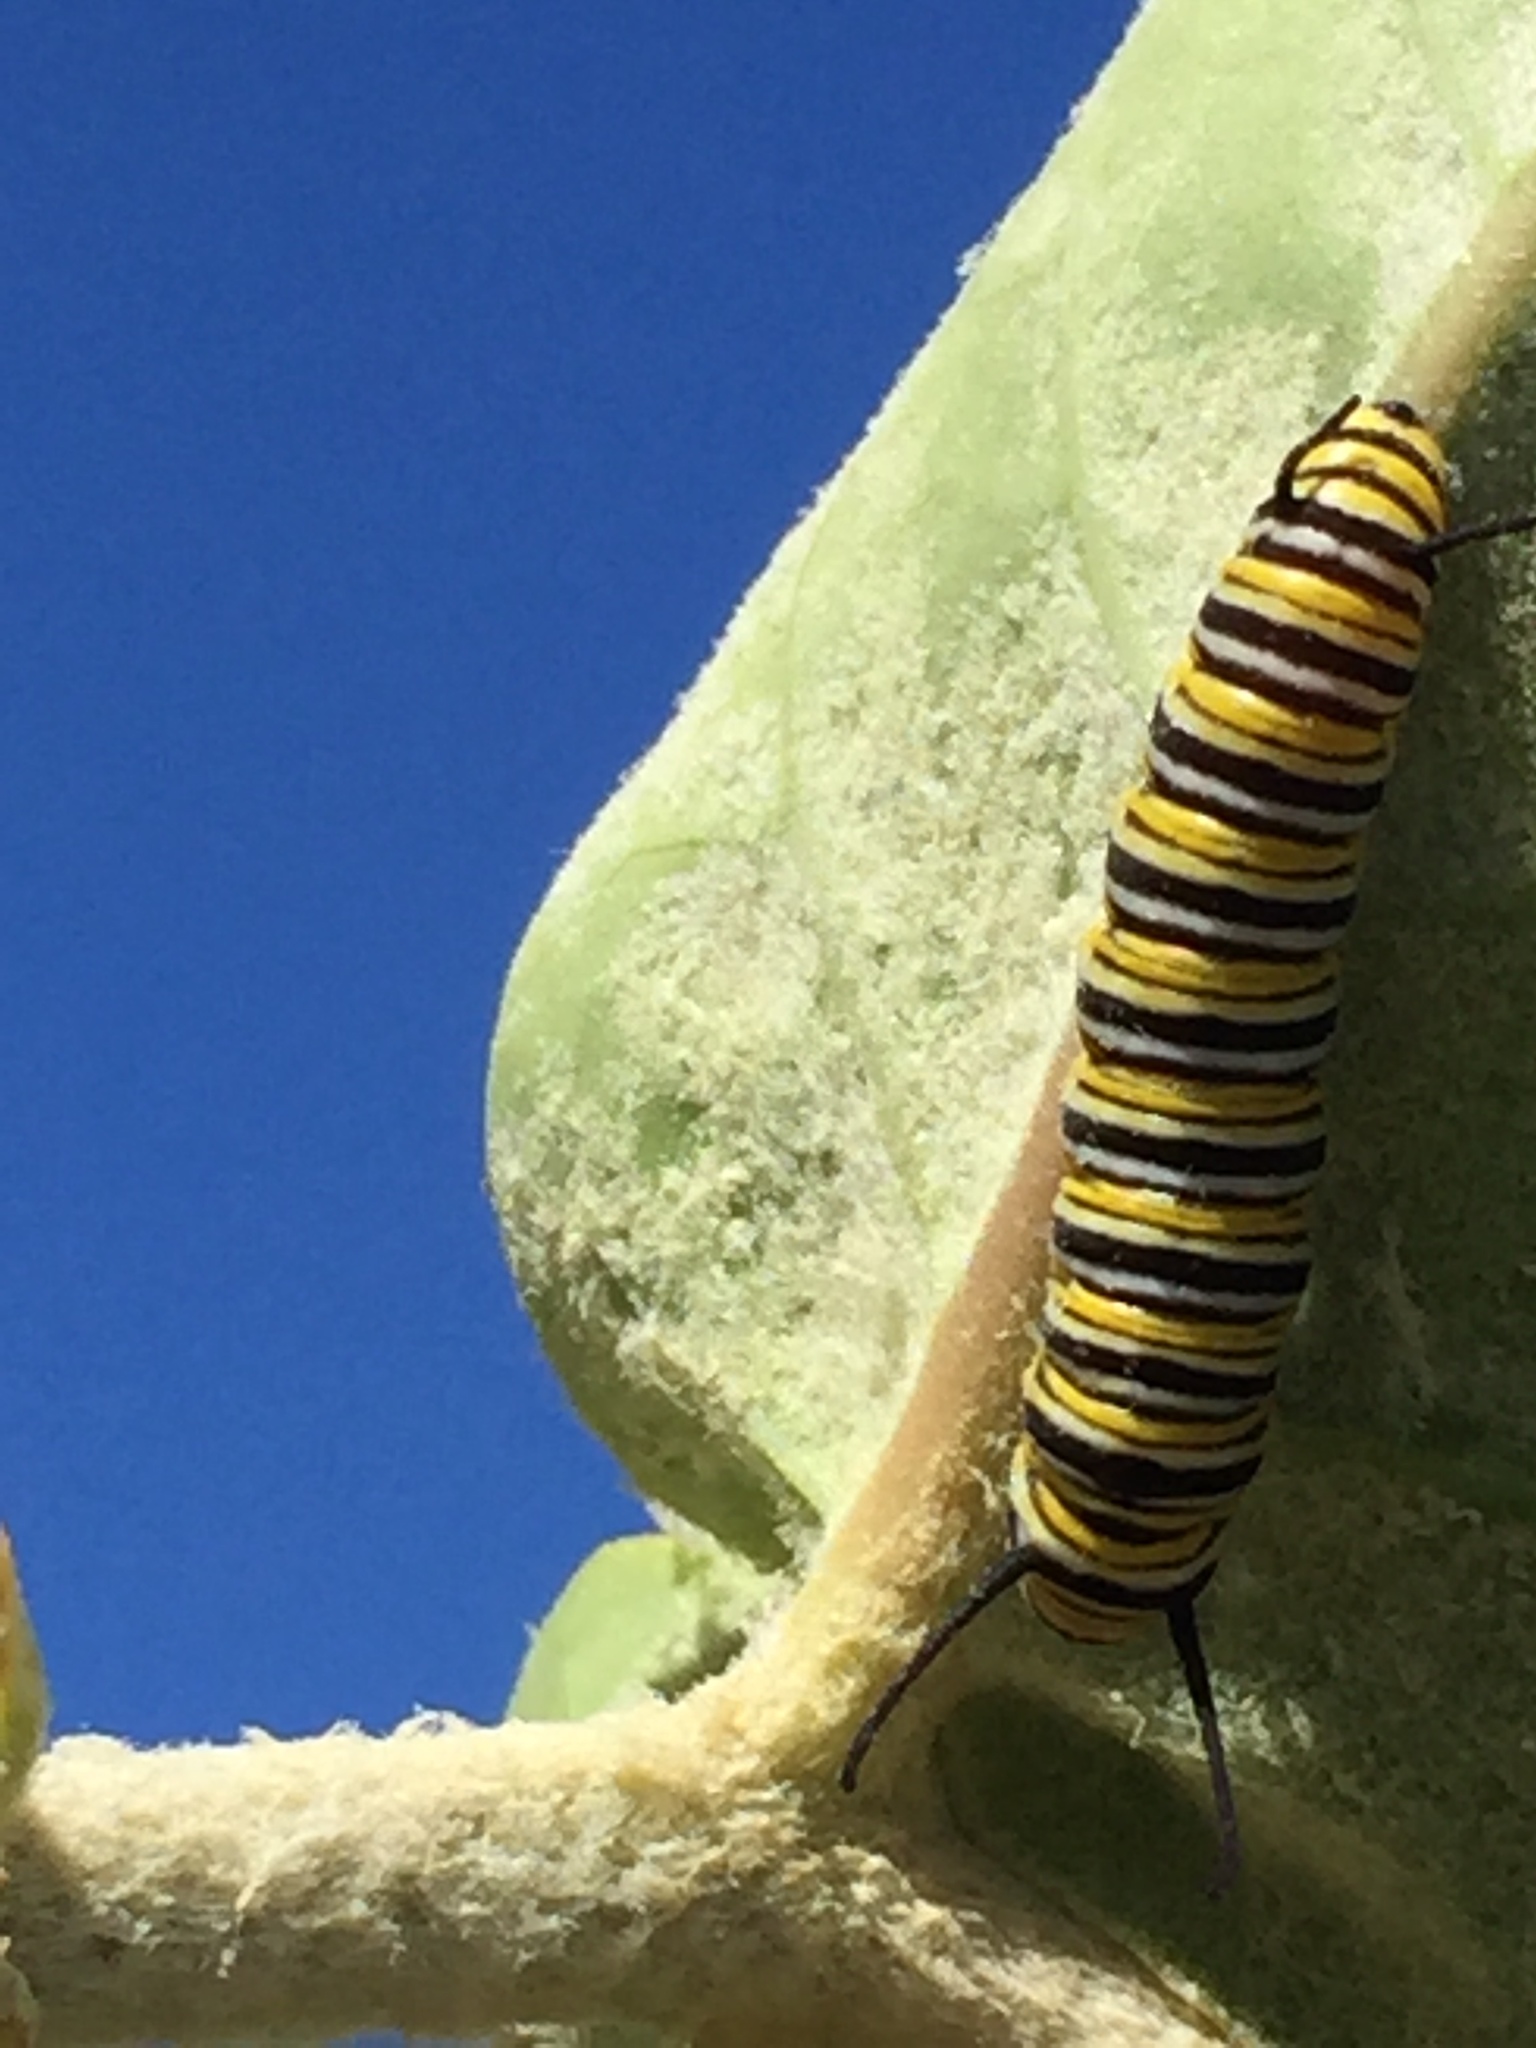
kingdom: Animalia
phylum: Arthropoda
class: Insecta
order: Lepidoptera
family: Nymphalidae
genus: Danaus
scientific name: Danaus plexippus
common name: Monarch
